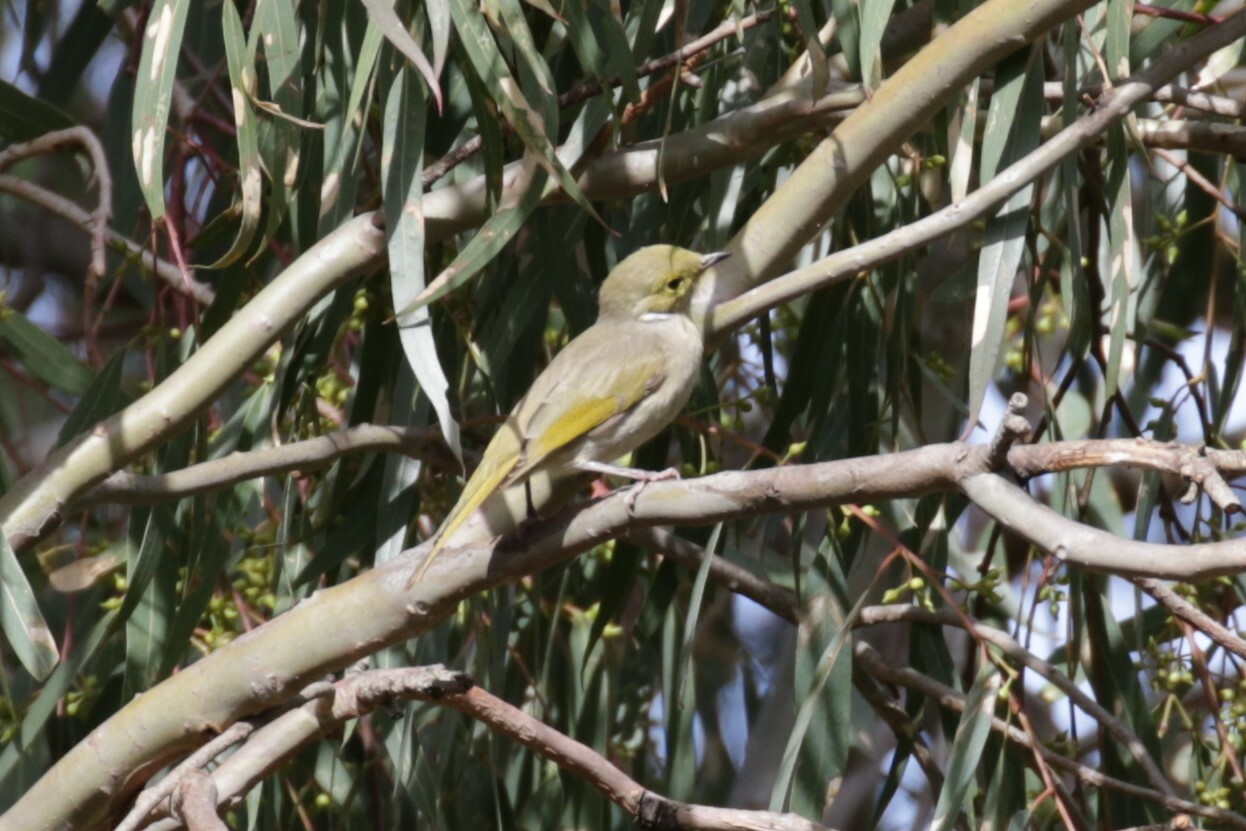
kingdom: Animalia
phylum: Chordata
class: Aves
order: Passeriformes
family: Meliphagidae
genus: Ptilotula
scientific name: Ptilotula penicillata
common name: White-plumed honeyeater
